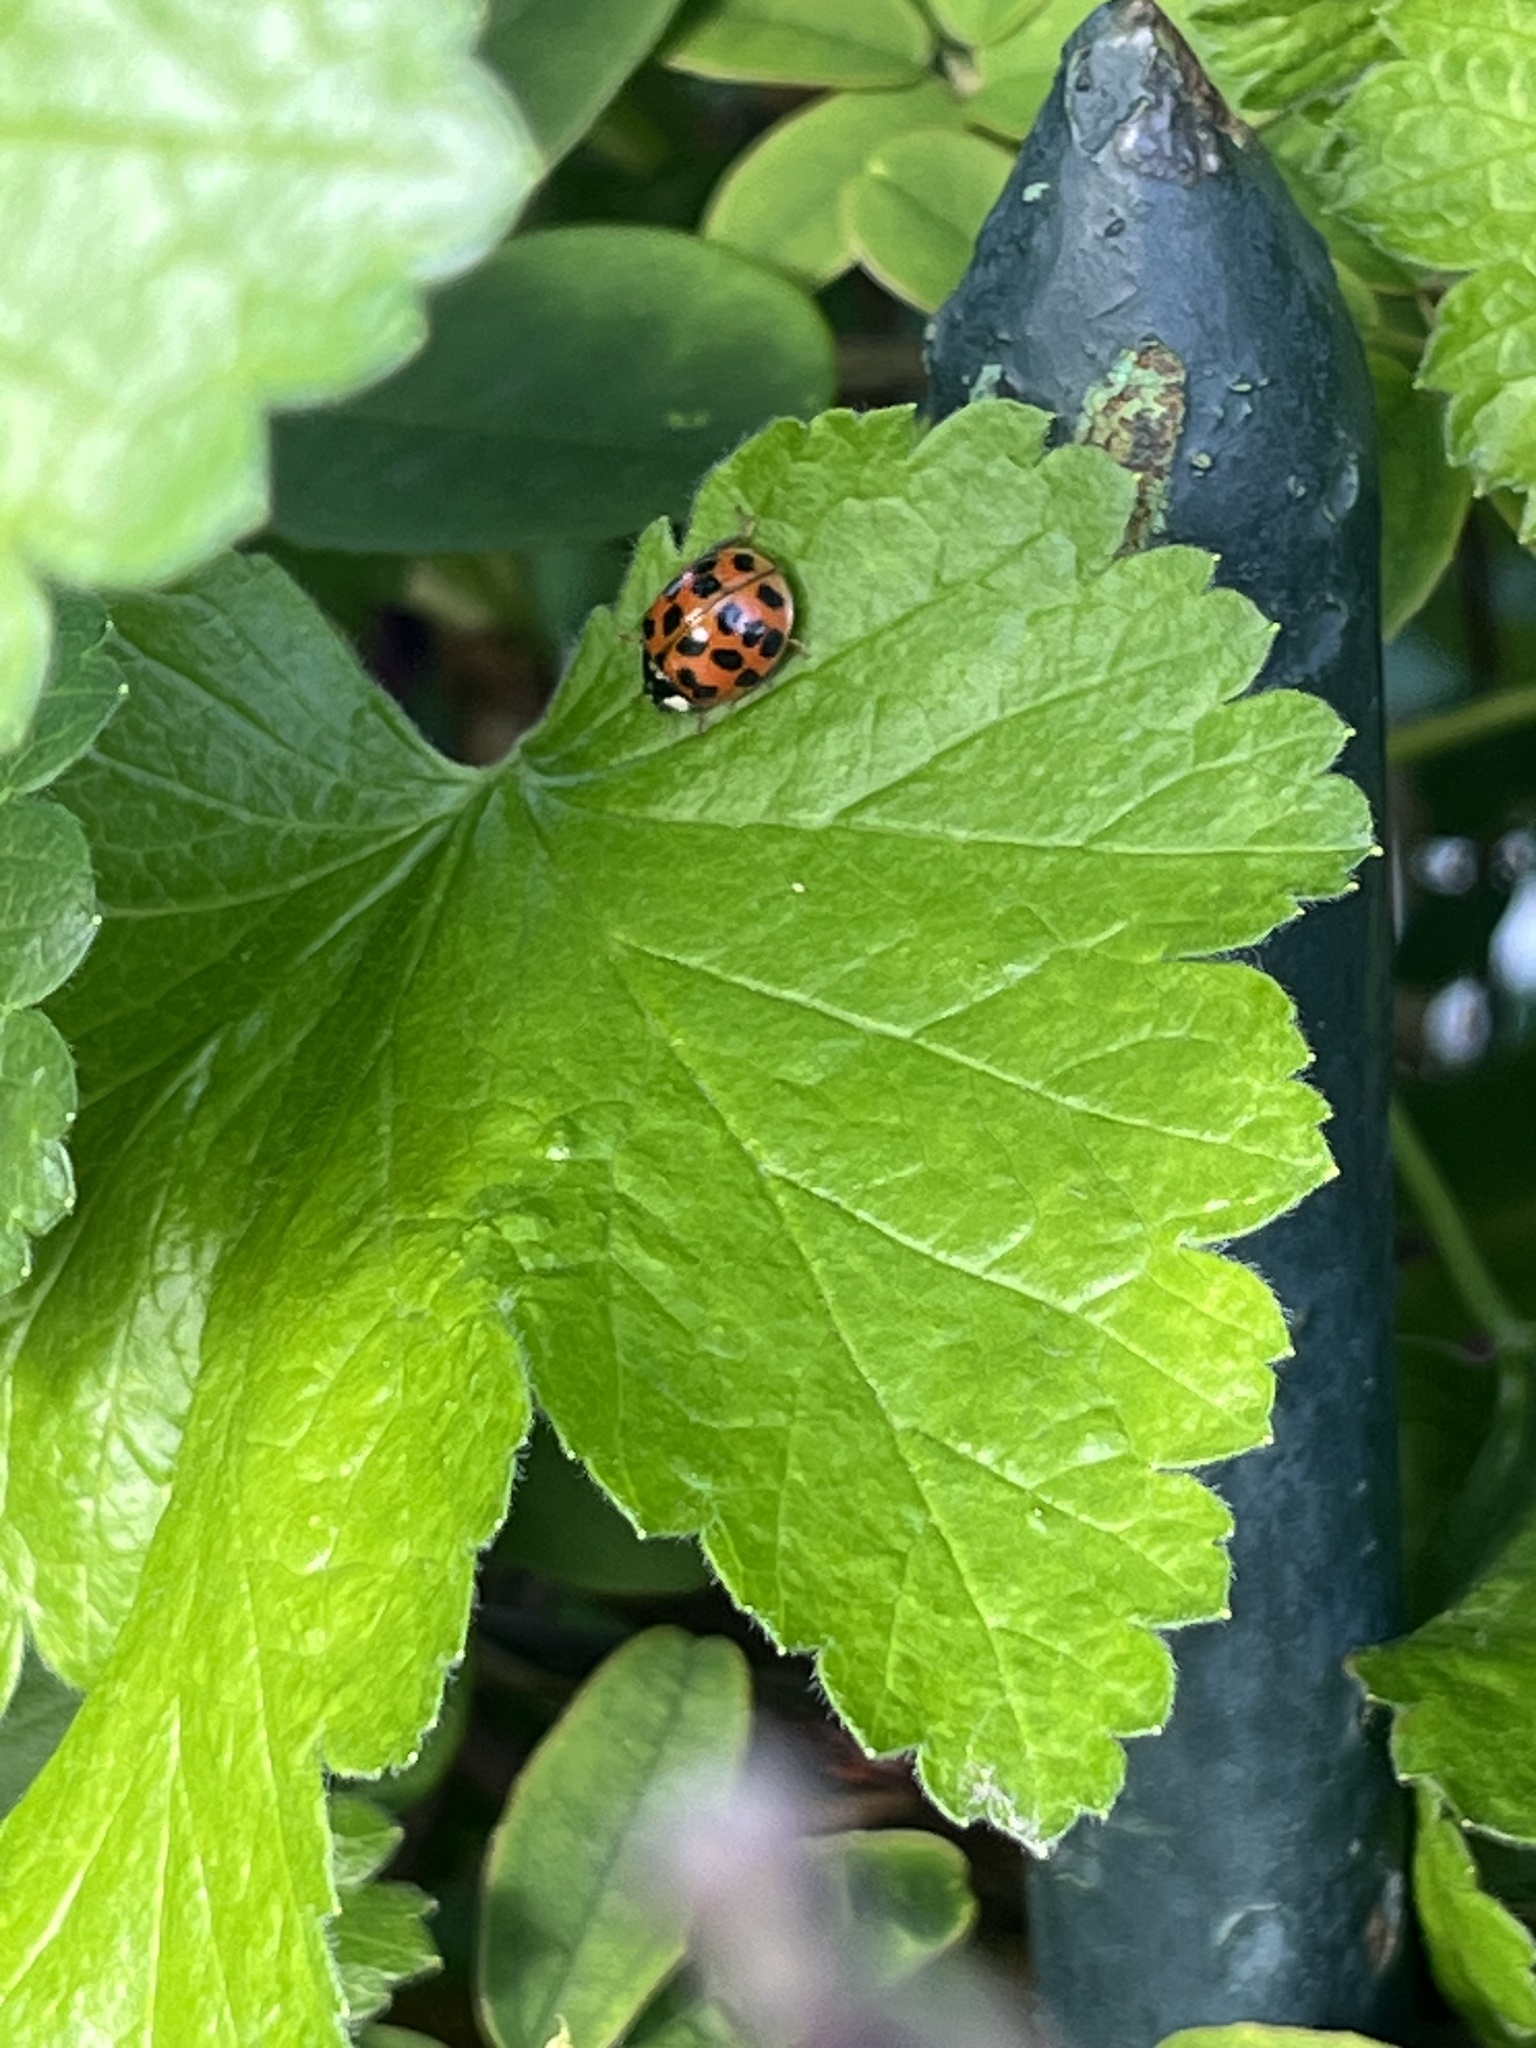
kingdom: Animalia
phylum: Arthropoda
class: Insecta
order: Coleoptera
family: Coccinellidae
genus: Harmonia
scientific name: Harmonia axyridis
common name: Harlequin ladybird
